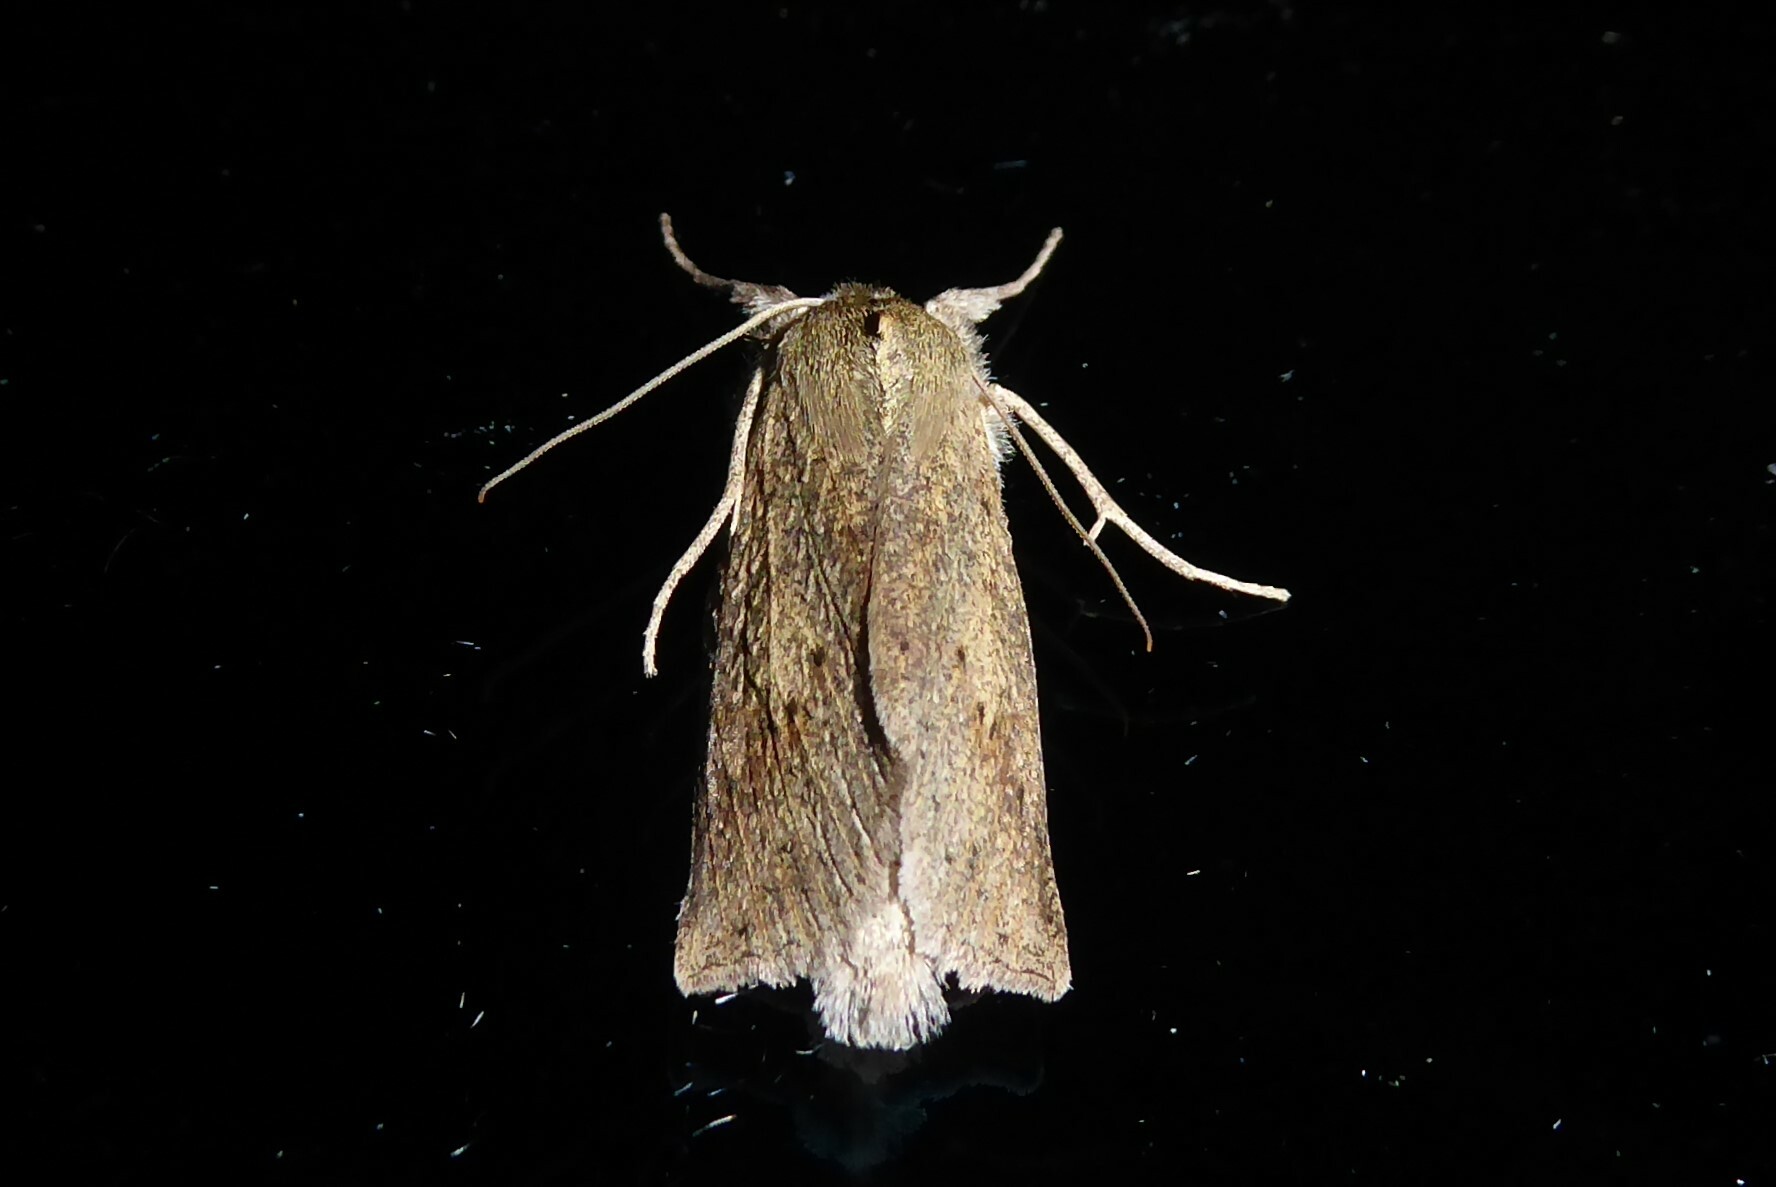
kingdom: Animalia
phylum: Arthropoda
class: Insecta
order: Lepidoptera
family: Geometridae
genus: Declana
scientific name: Declana leptomera
